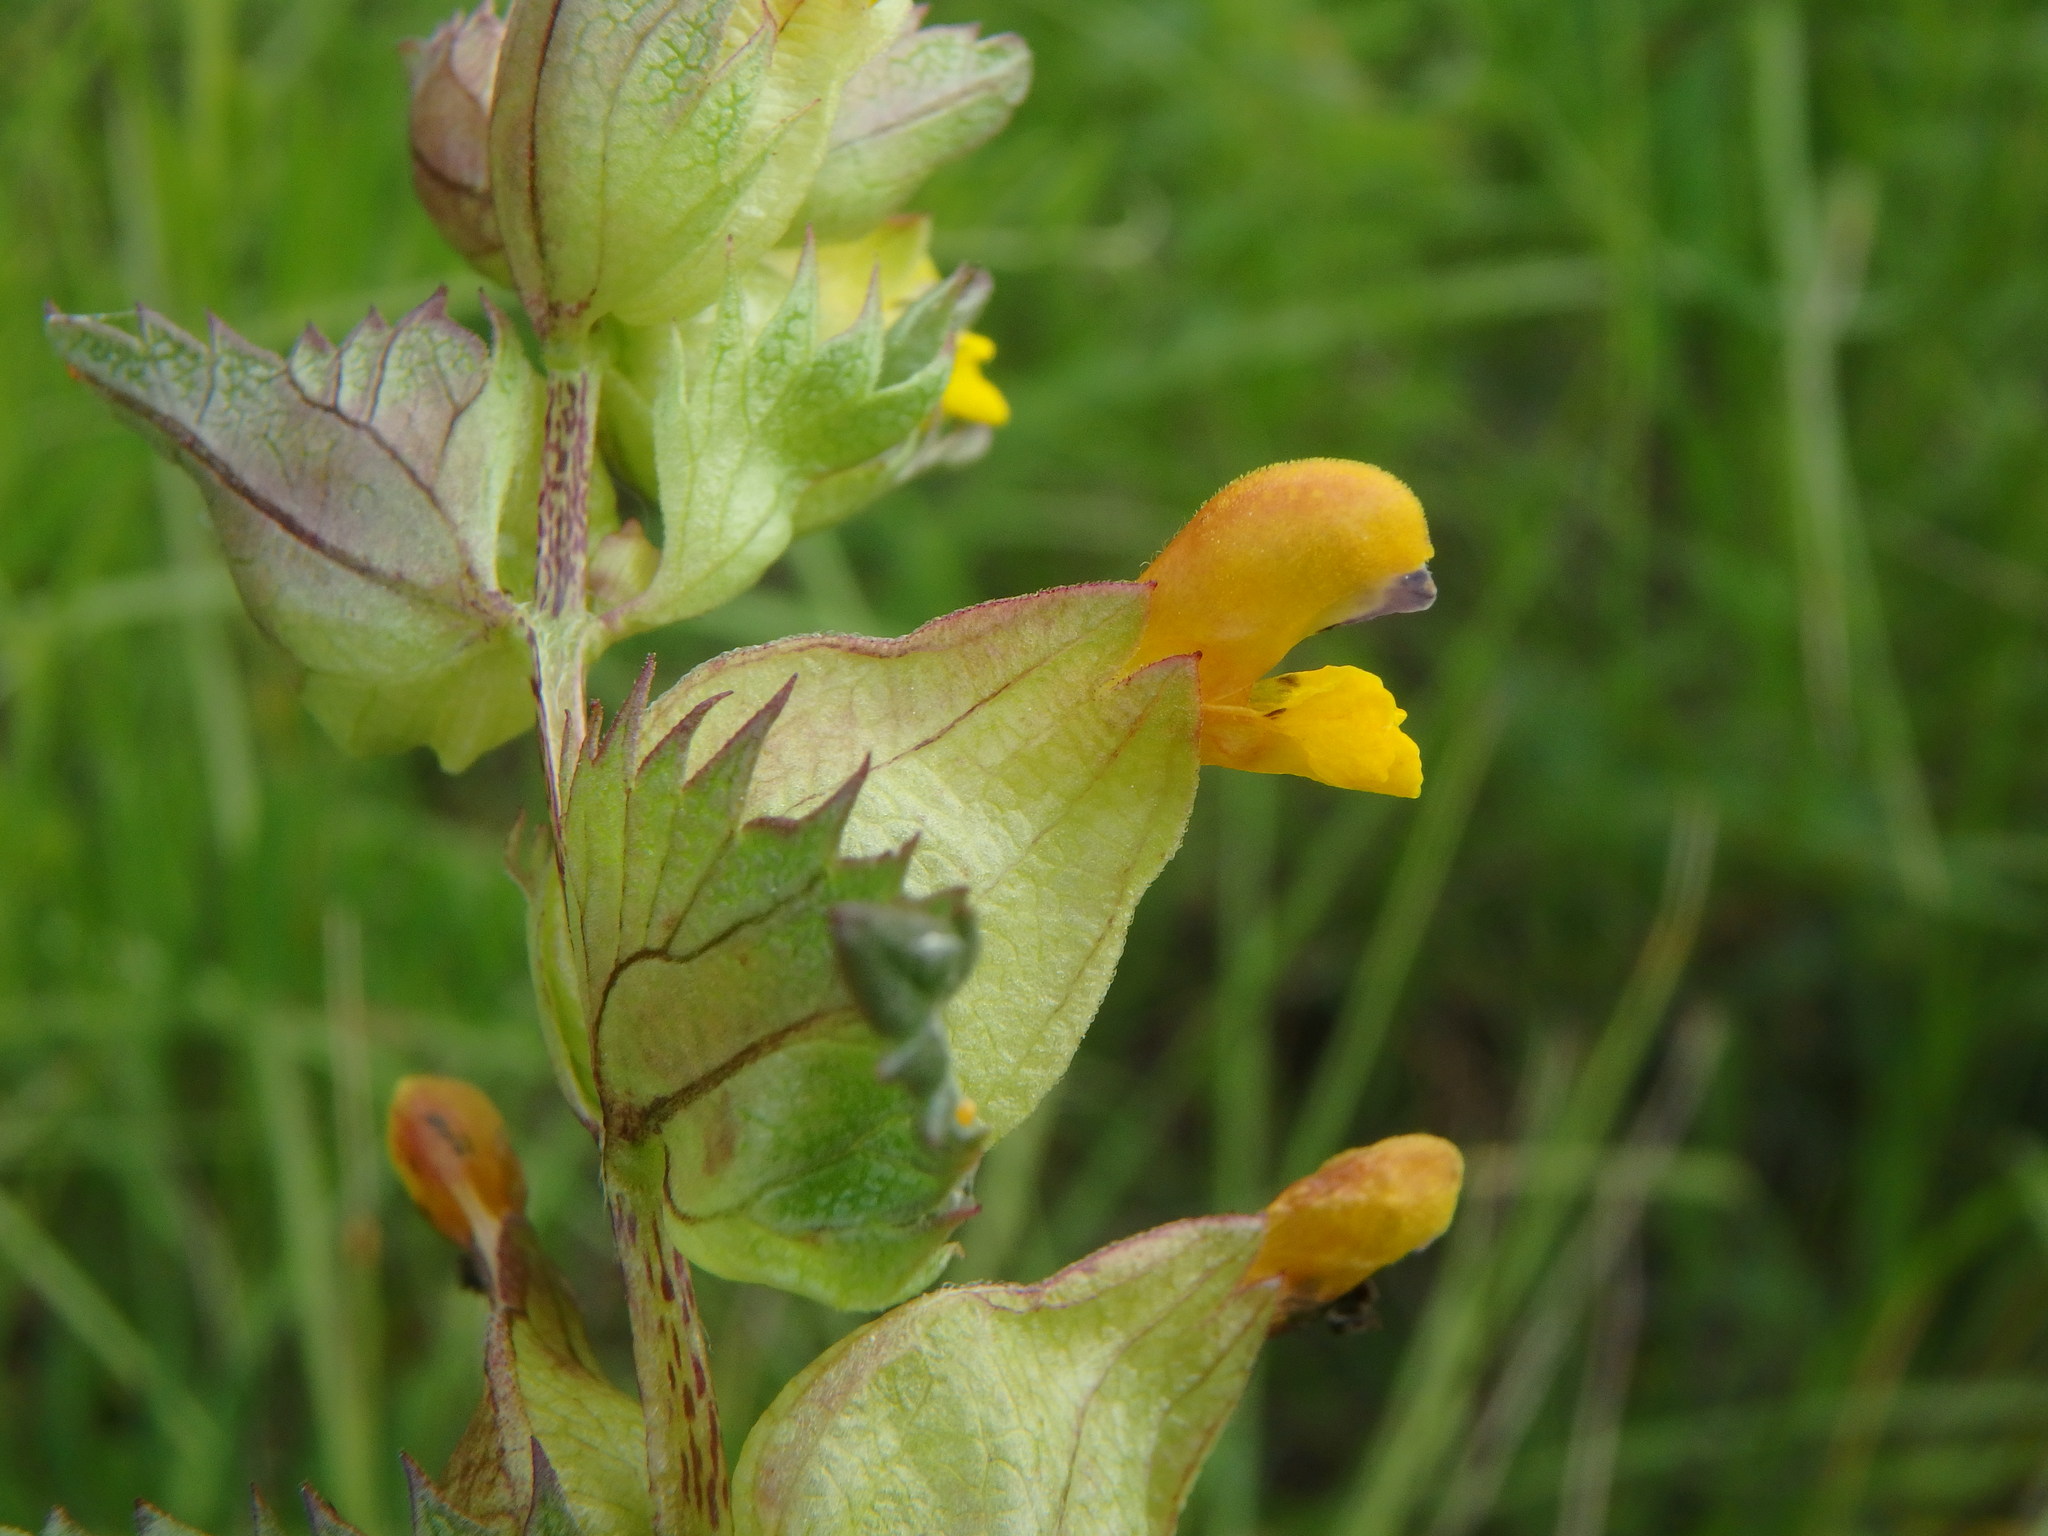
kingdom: Plantae
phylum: Tracheophyta
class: Magnoliopsida
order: Lamiales
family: Orobanchaceae
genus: Rhinanthus
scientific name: Rhinanthus minor
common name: Yellow-rattle
